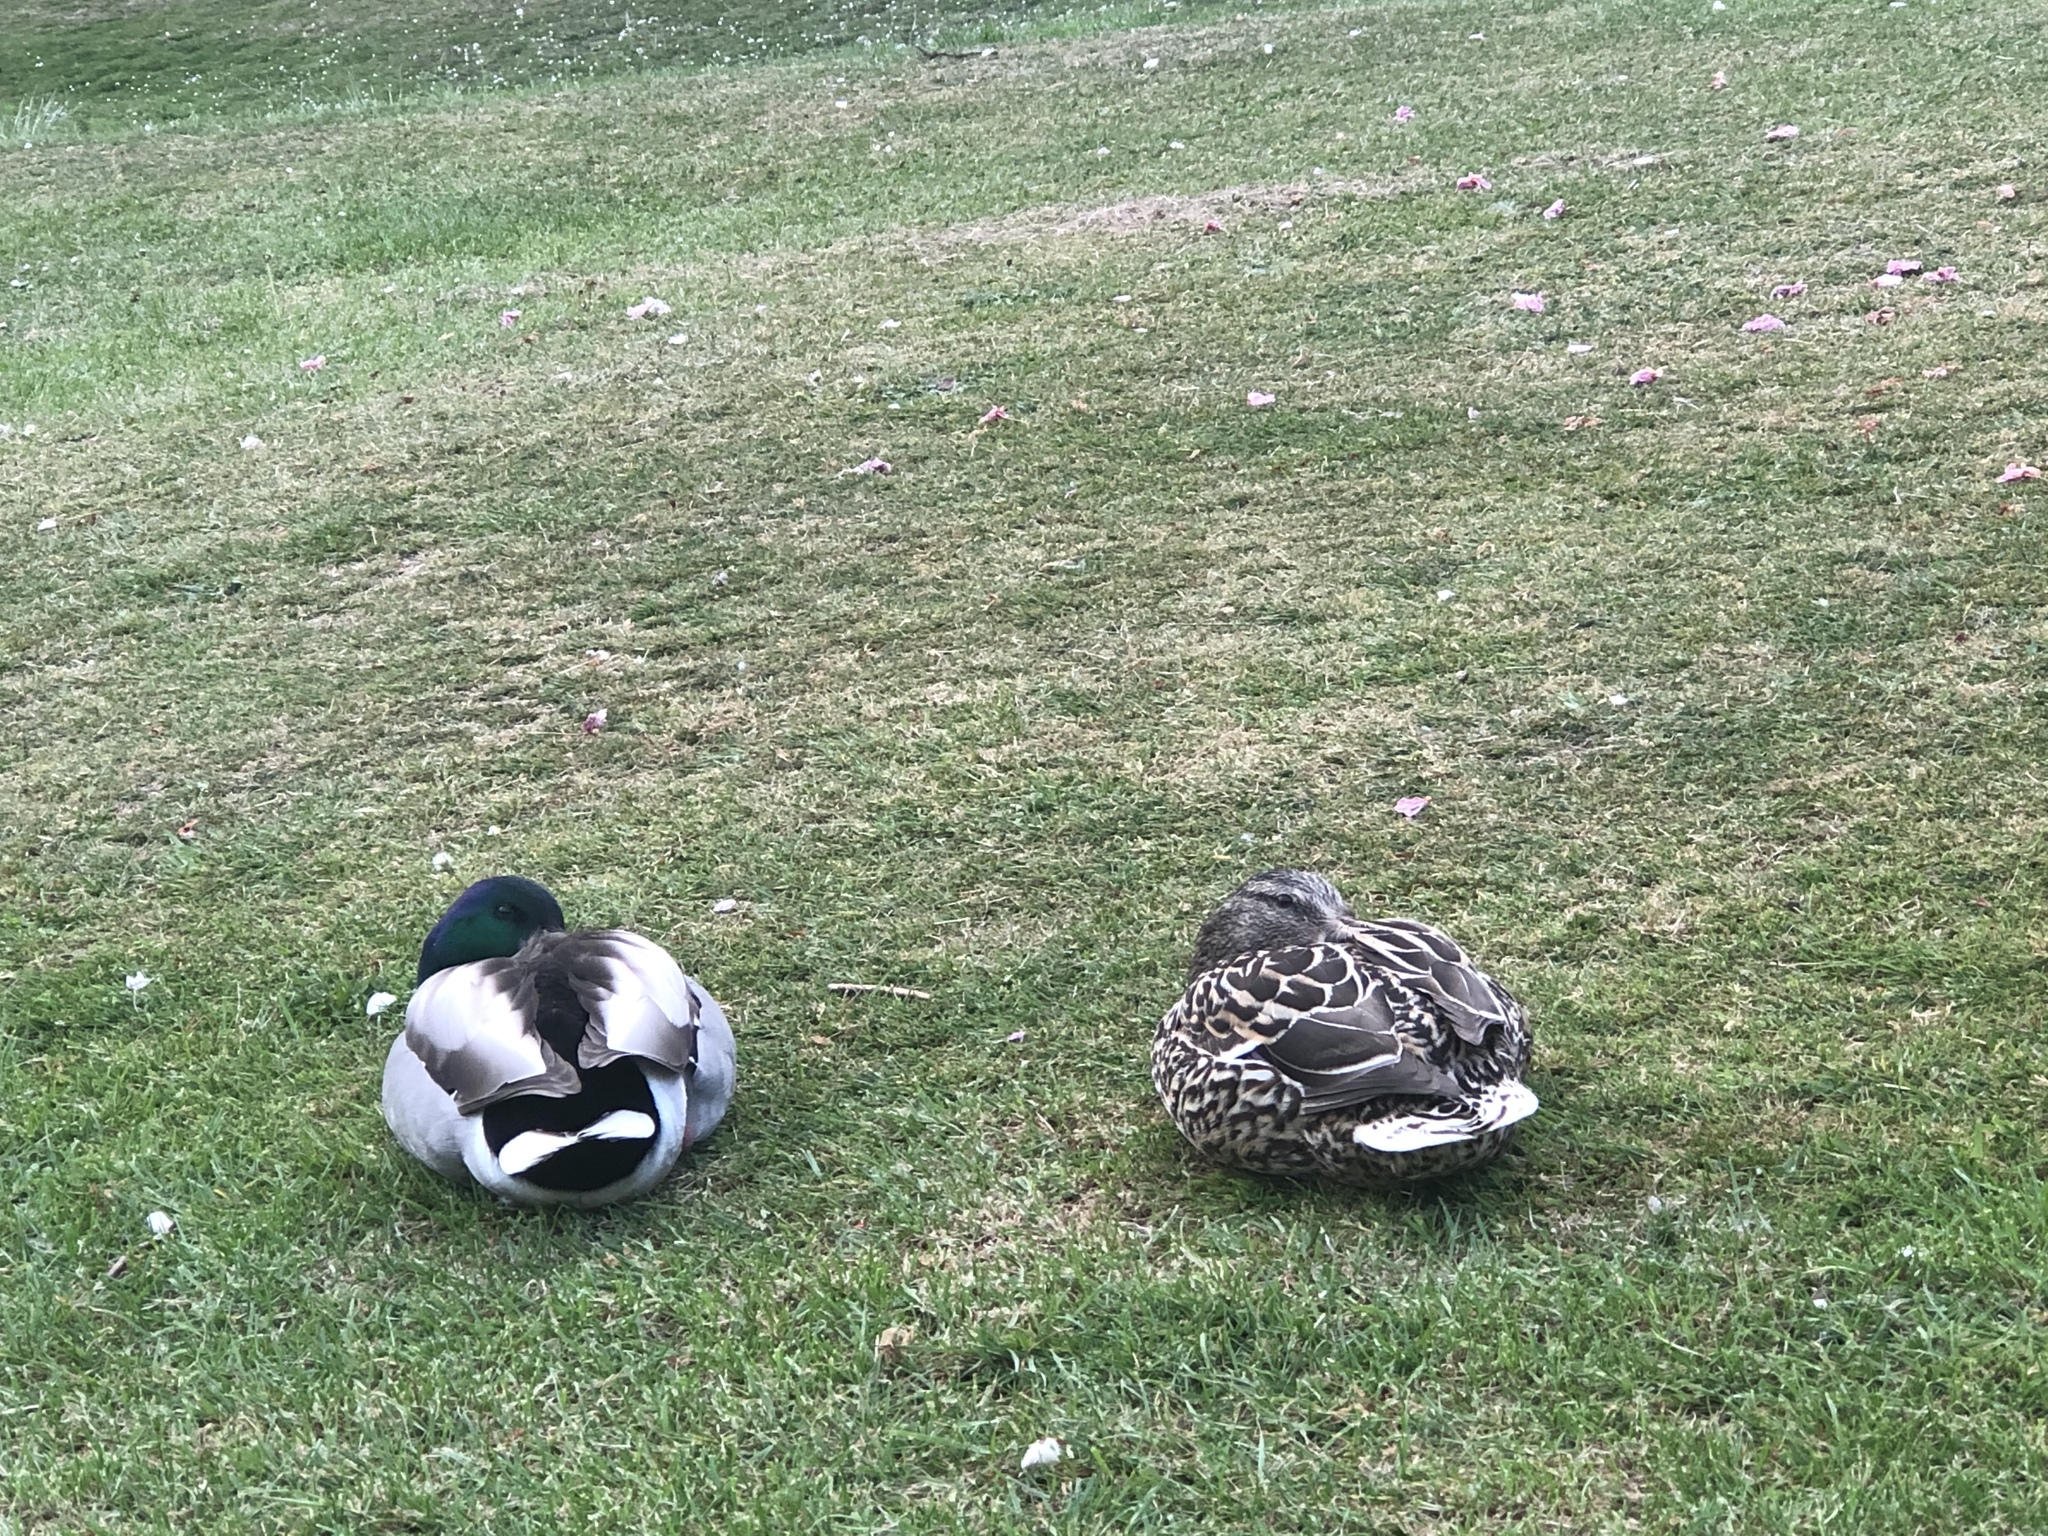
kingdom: Animalia
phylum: Chordata
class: Aves
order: Anseriformes
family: Anatidae
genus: Anas
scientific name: Anas platyrhynchos
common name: Mallard
